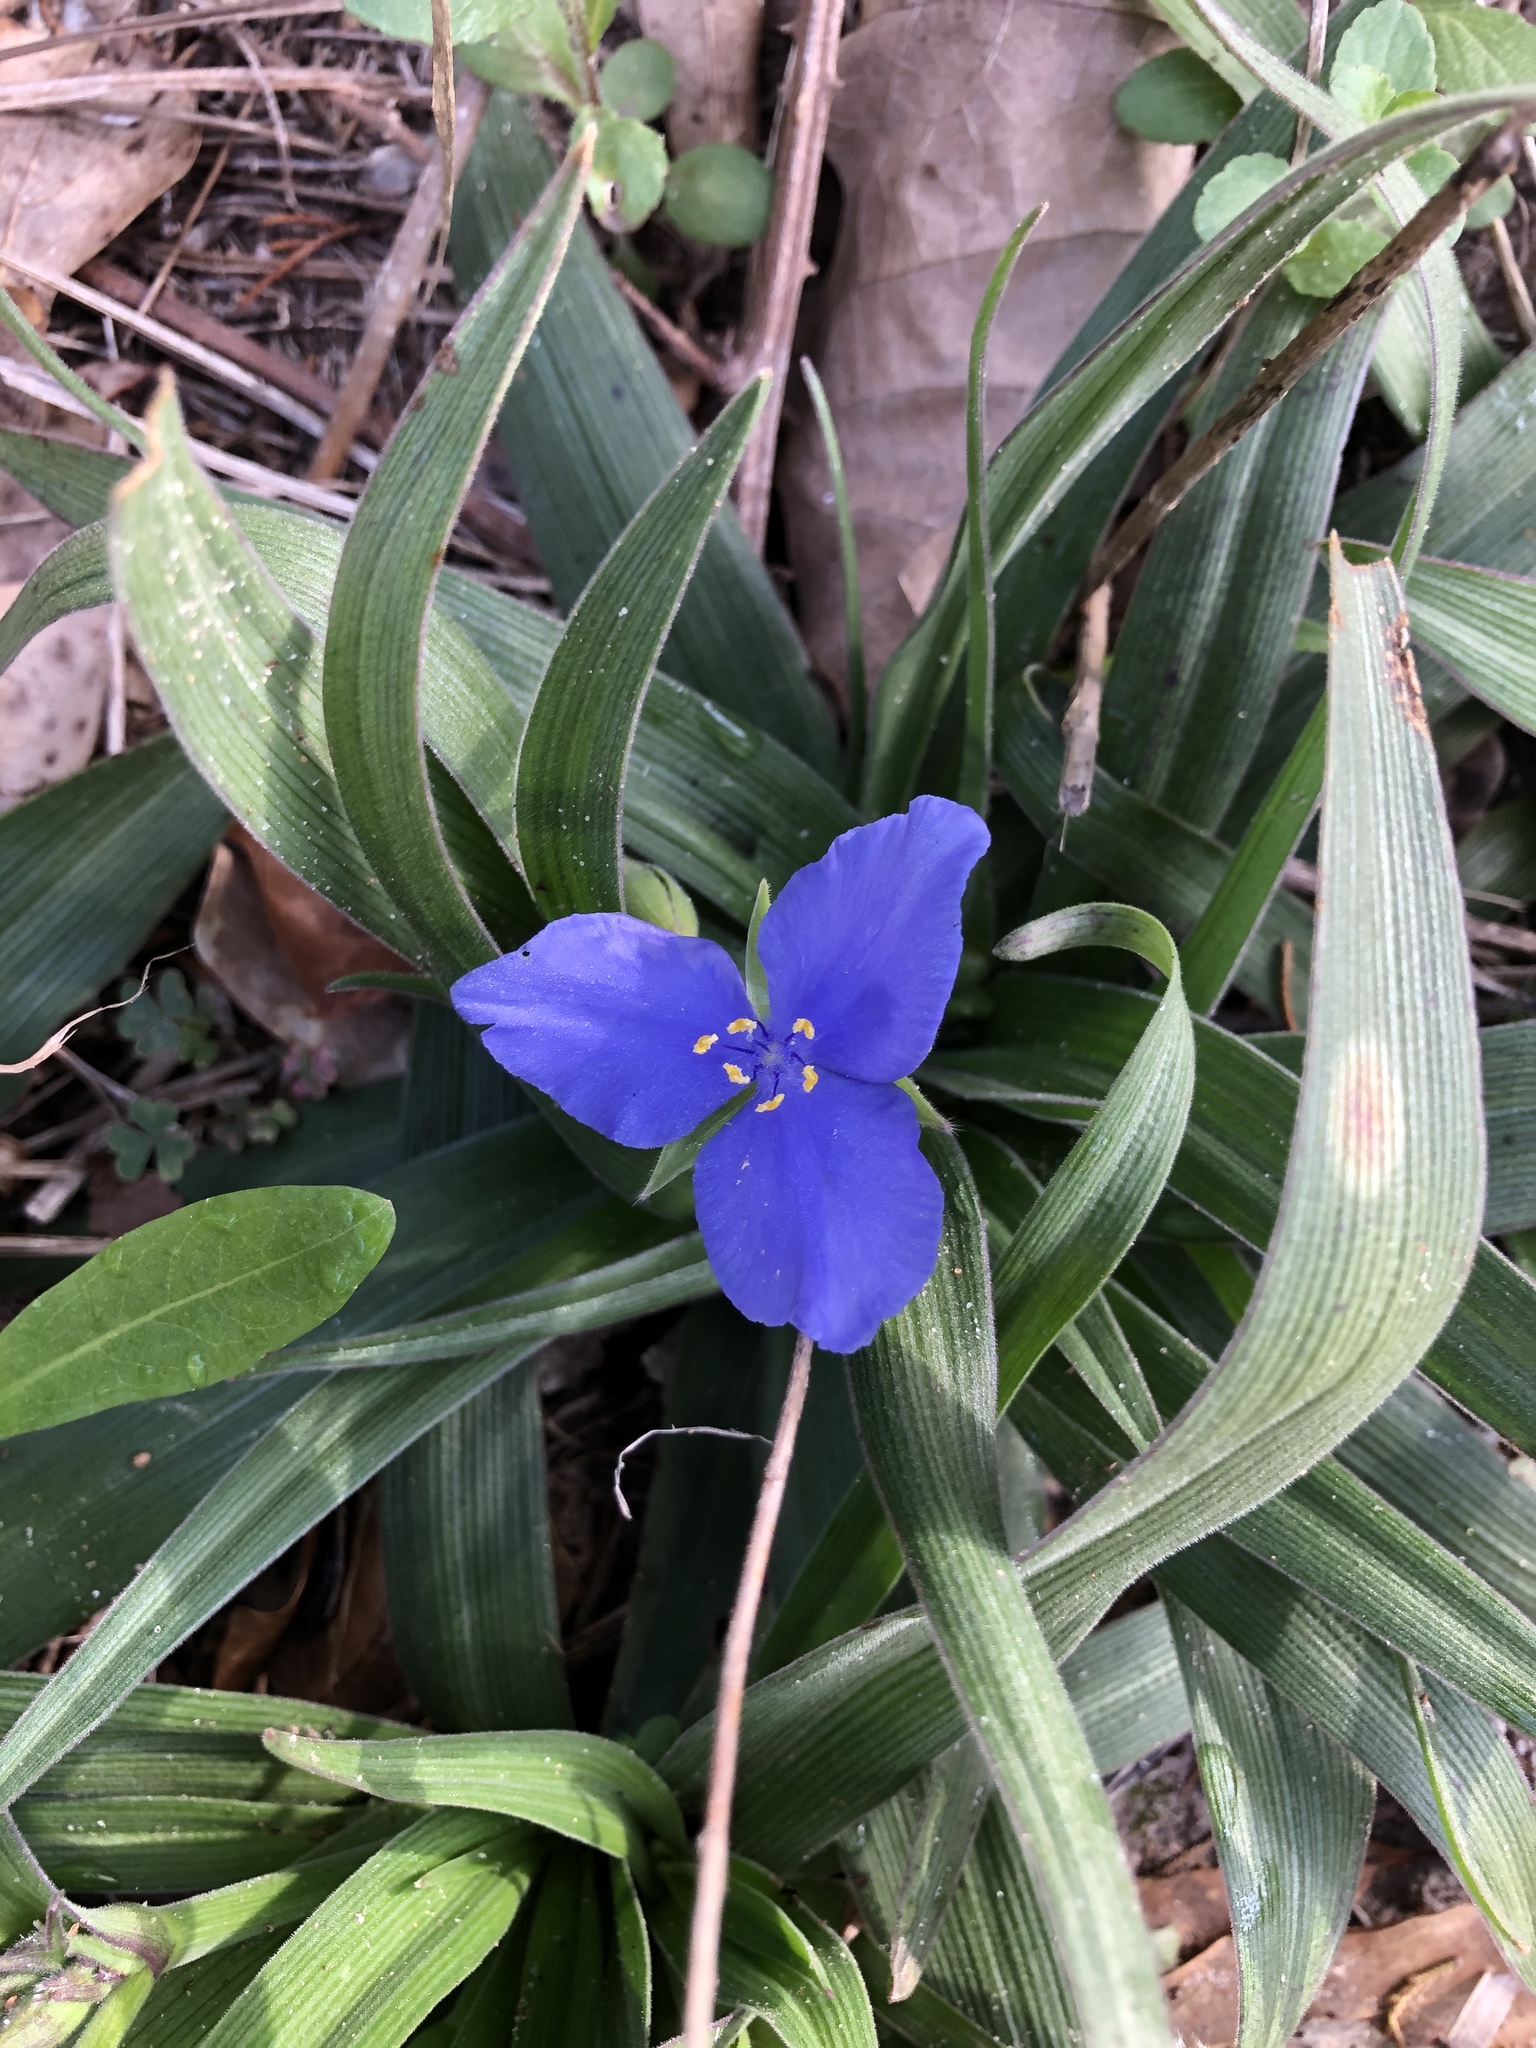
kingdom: Plantae
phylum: Tracheophyta
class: Liliopsida
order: Commelinales
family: Commelinaceae
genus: Tradescantia
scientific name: Tradescantia subacaulis
